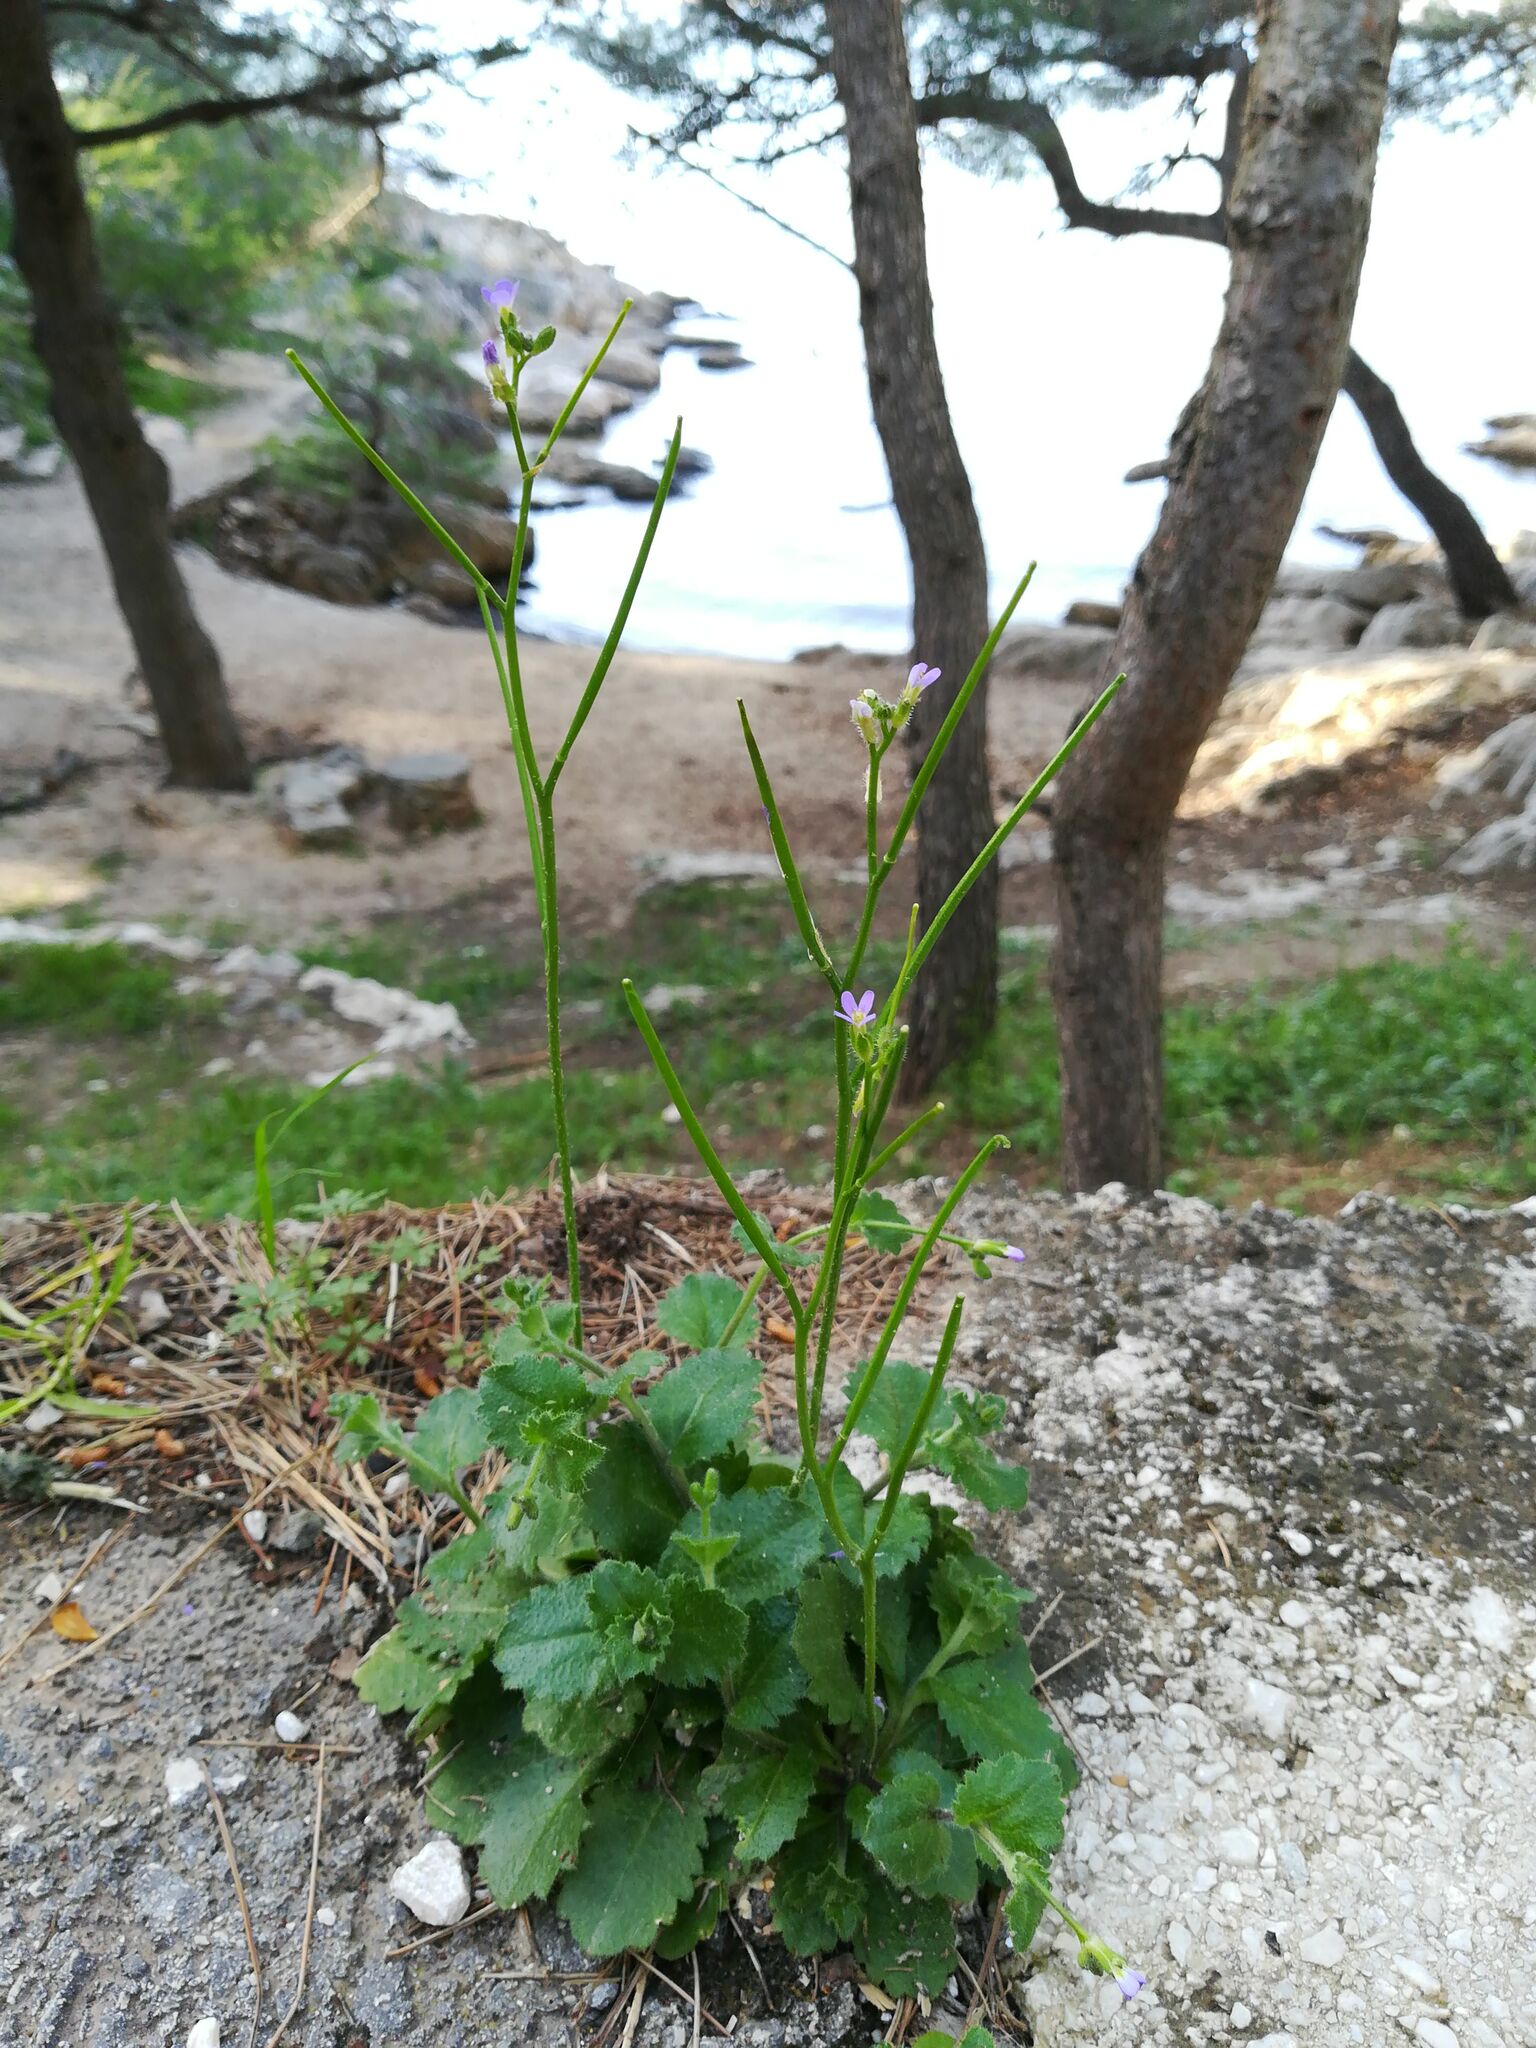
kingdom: Plantae
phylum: Tracheophyta
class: Magnoliopsida
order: Brassicales
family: Brassicaceae
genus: Arabis
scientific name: Arabis verna
